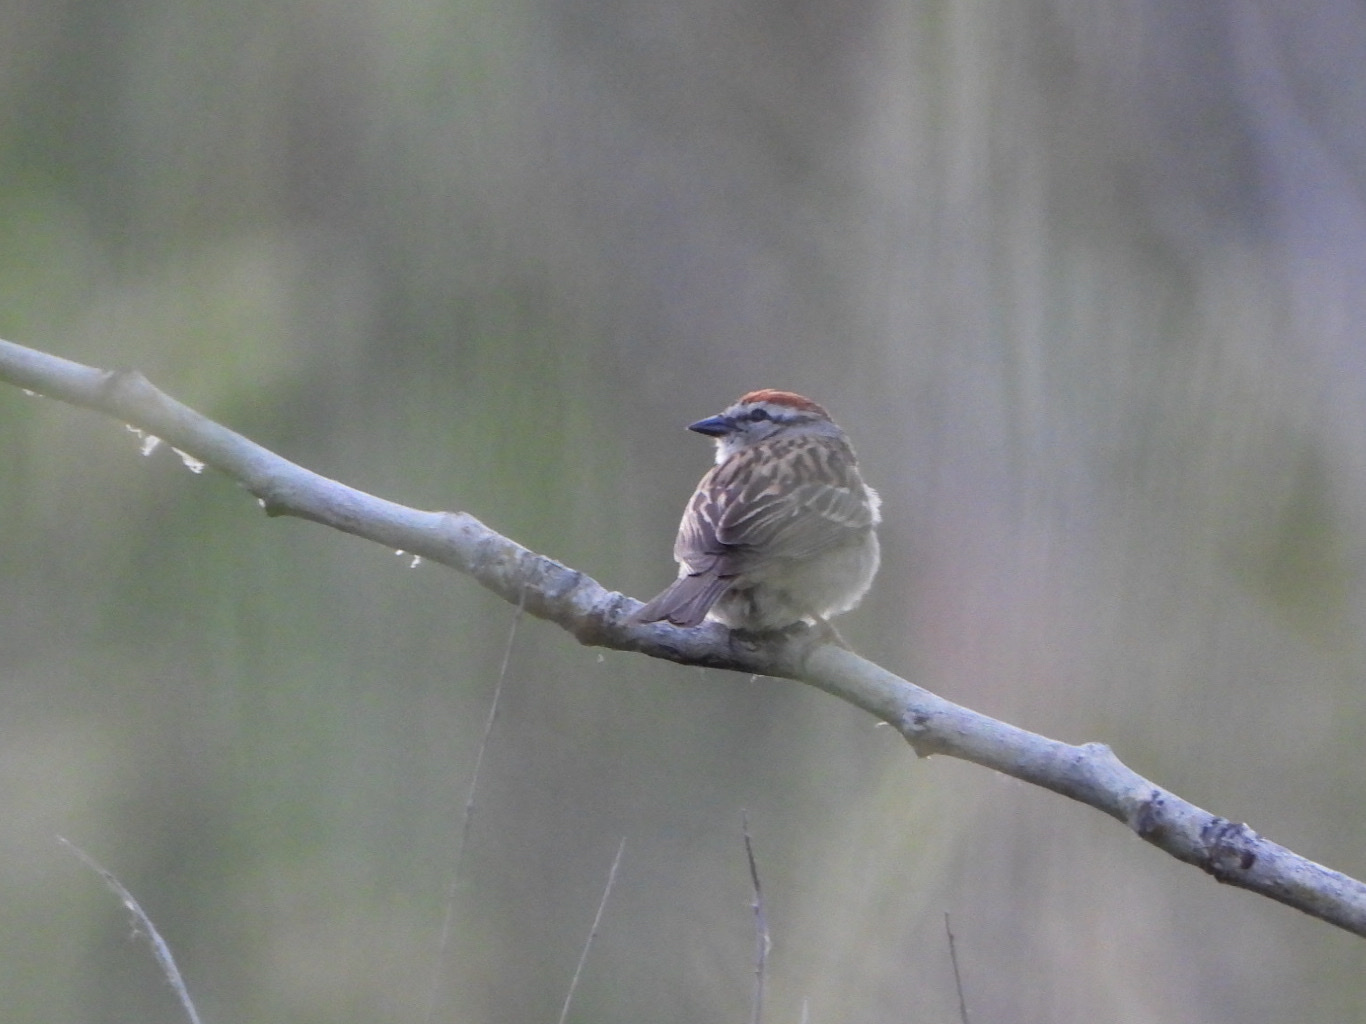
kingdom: Animalia
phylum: Chordata
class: Aves
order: Passeriformes
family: Passerellidae
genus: Spizella
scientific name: Spizella passerina
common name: Chipping sparrow
